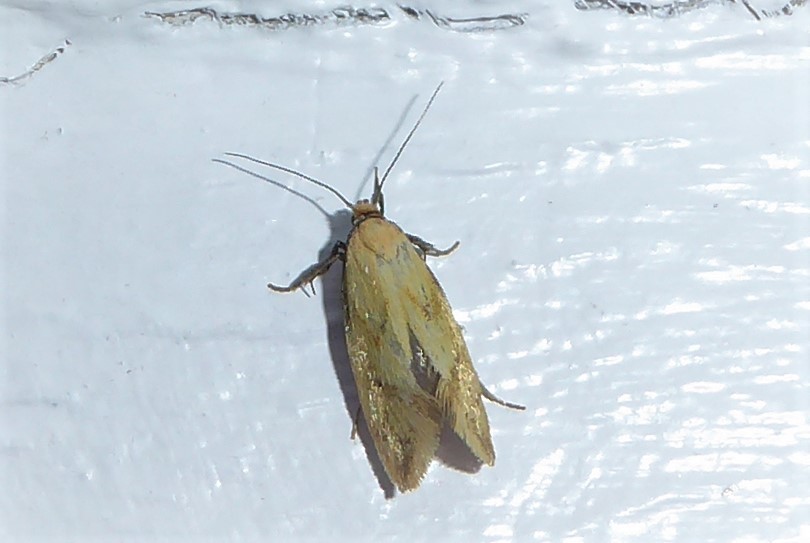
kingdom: Animalia
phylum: Arthropoda
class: Insecta
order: Lepidoptera
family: Oecophoridae
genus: Tingena
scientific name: Tingena actinias
